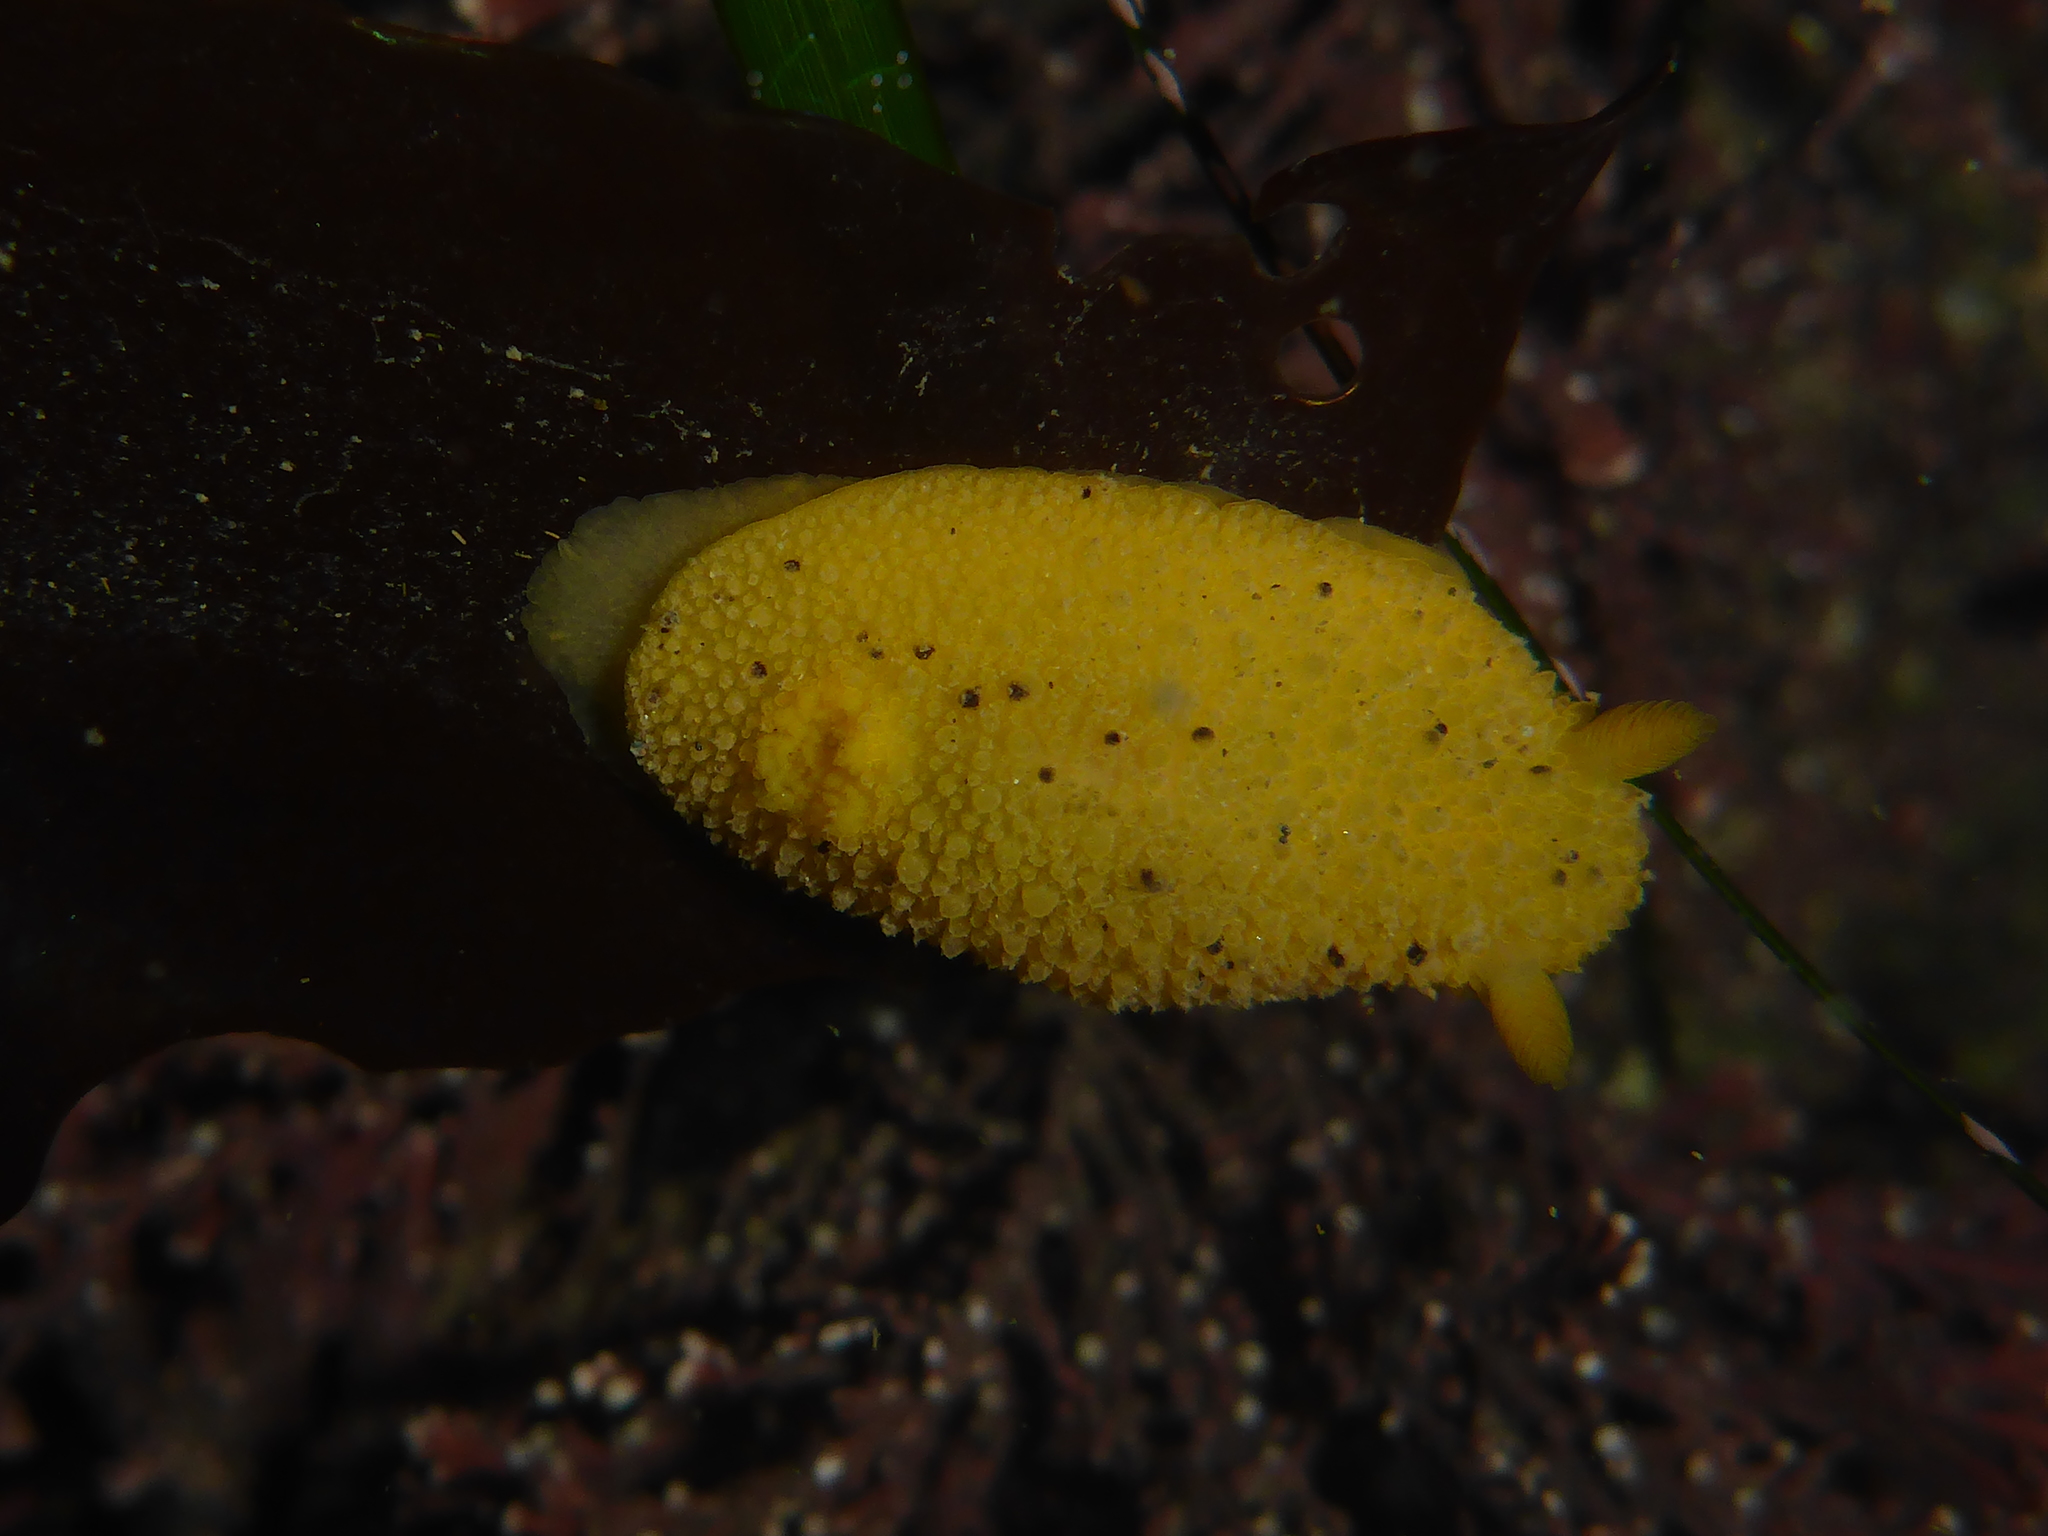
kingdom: Animalia
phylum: Mollusca
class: Gastropoda
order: Nudibranchia
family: Dorididae
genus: Doris
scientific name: Doris montereyensis
